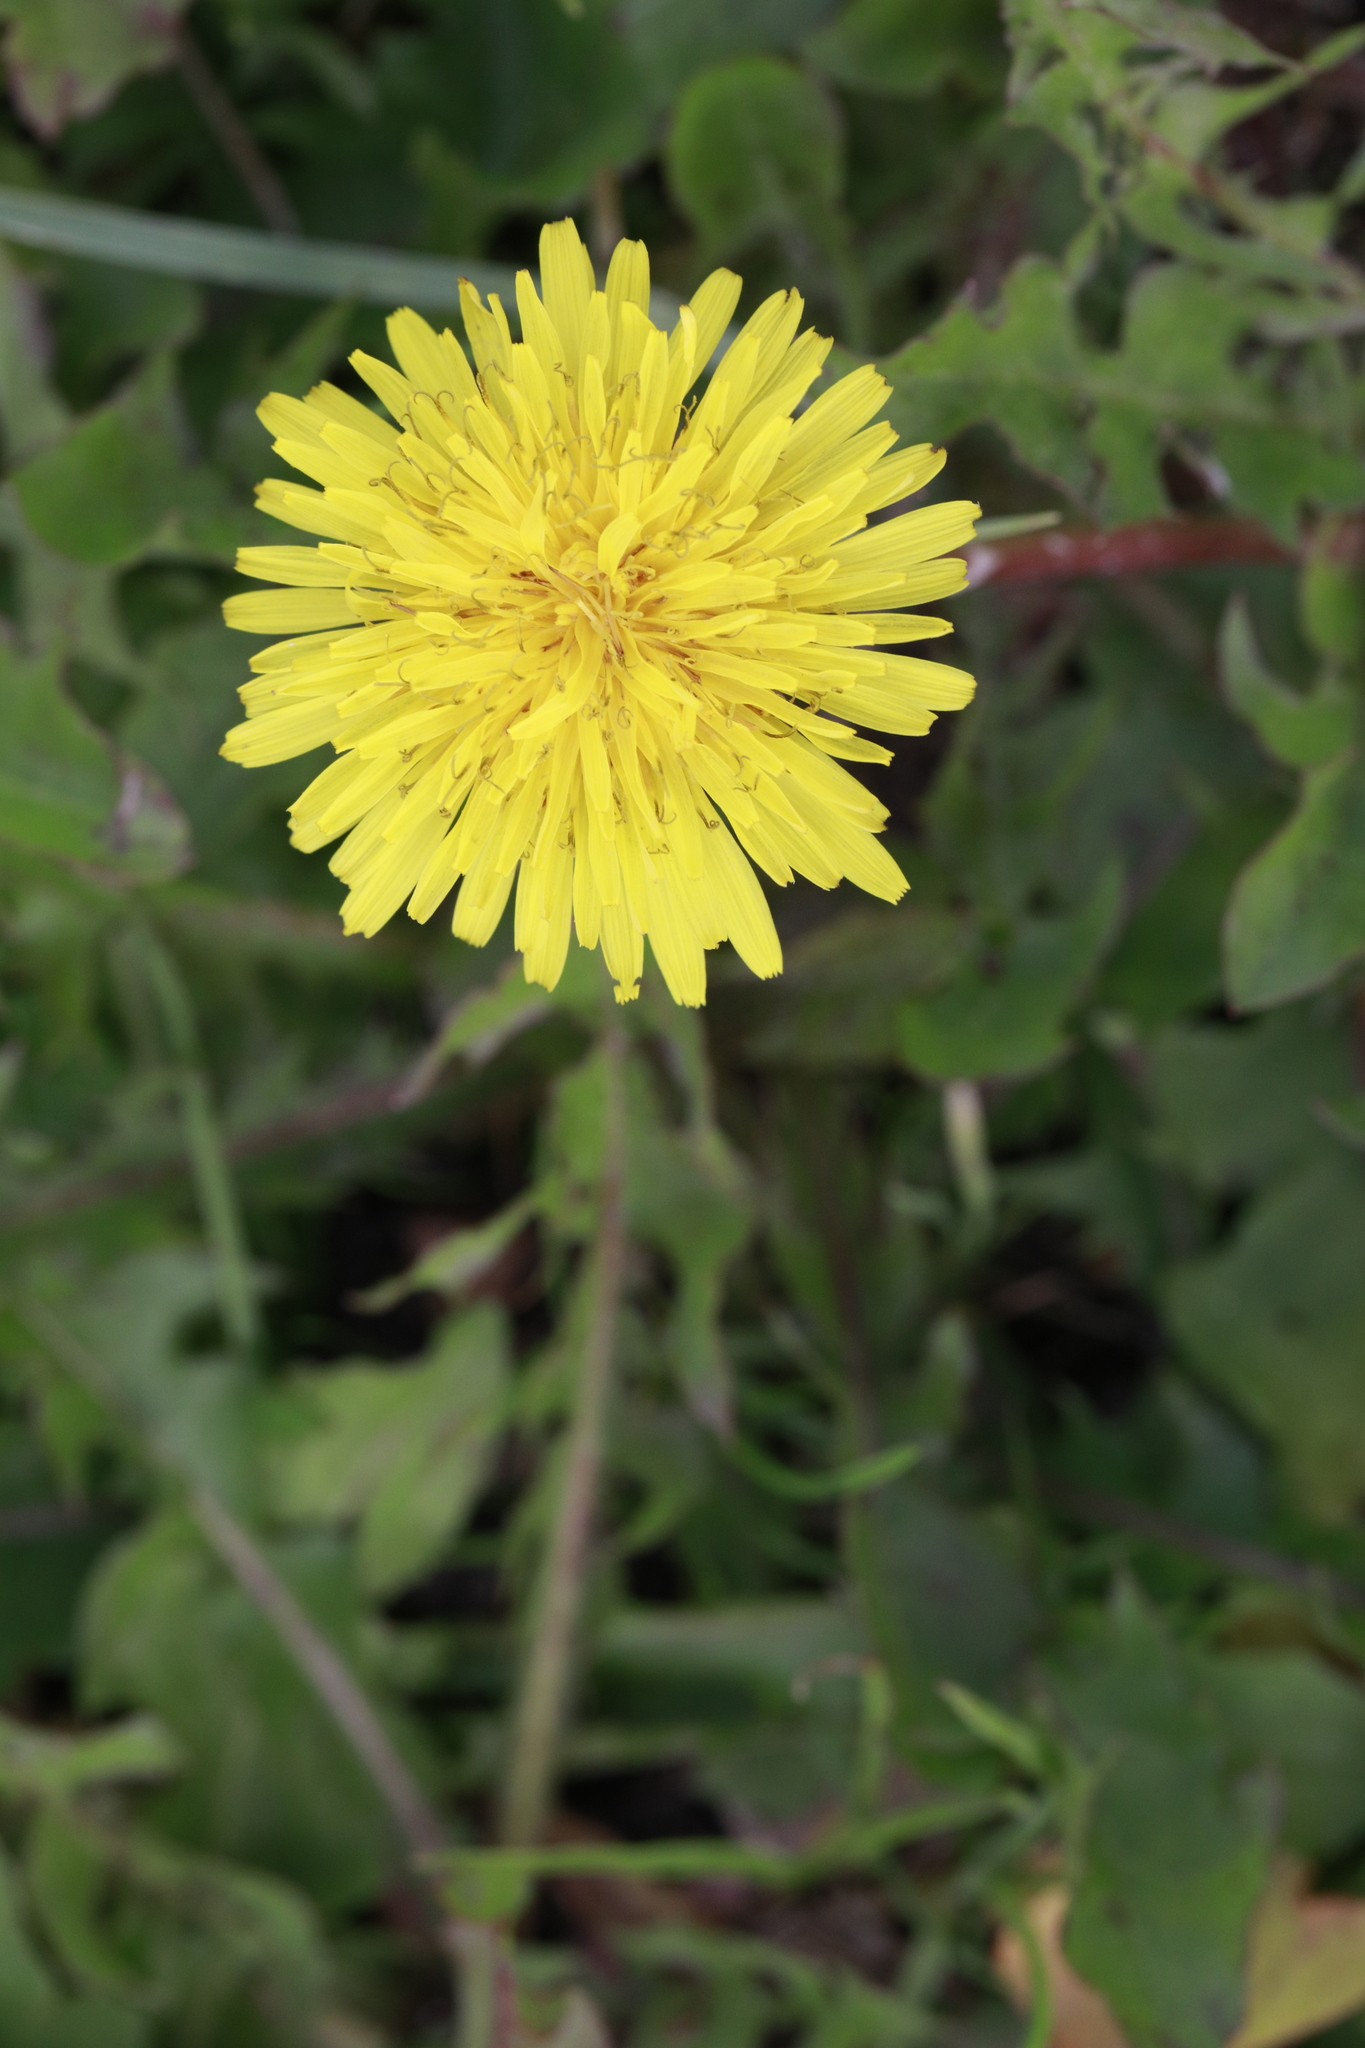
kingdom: Plantae
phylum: Tracheophyta
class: Magnoliopsida
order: Asterales
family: Asteraceae
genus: Taraxacum
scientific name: Taraxacum officinale
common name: Common dandelion
